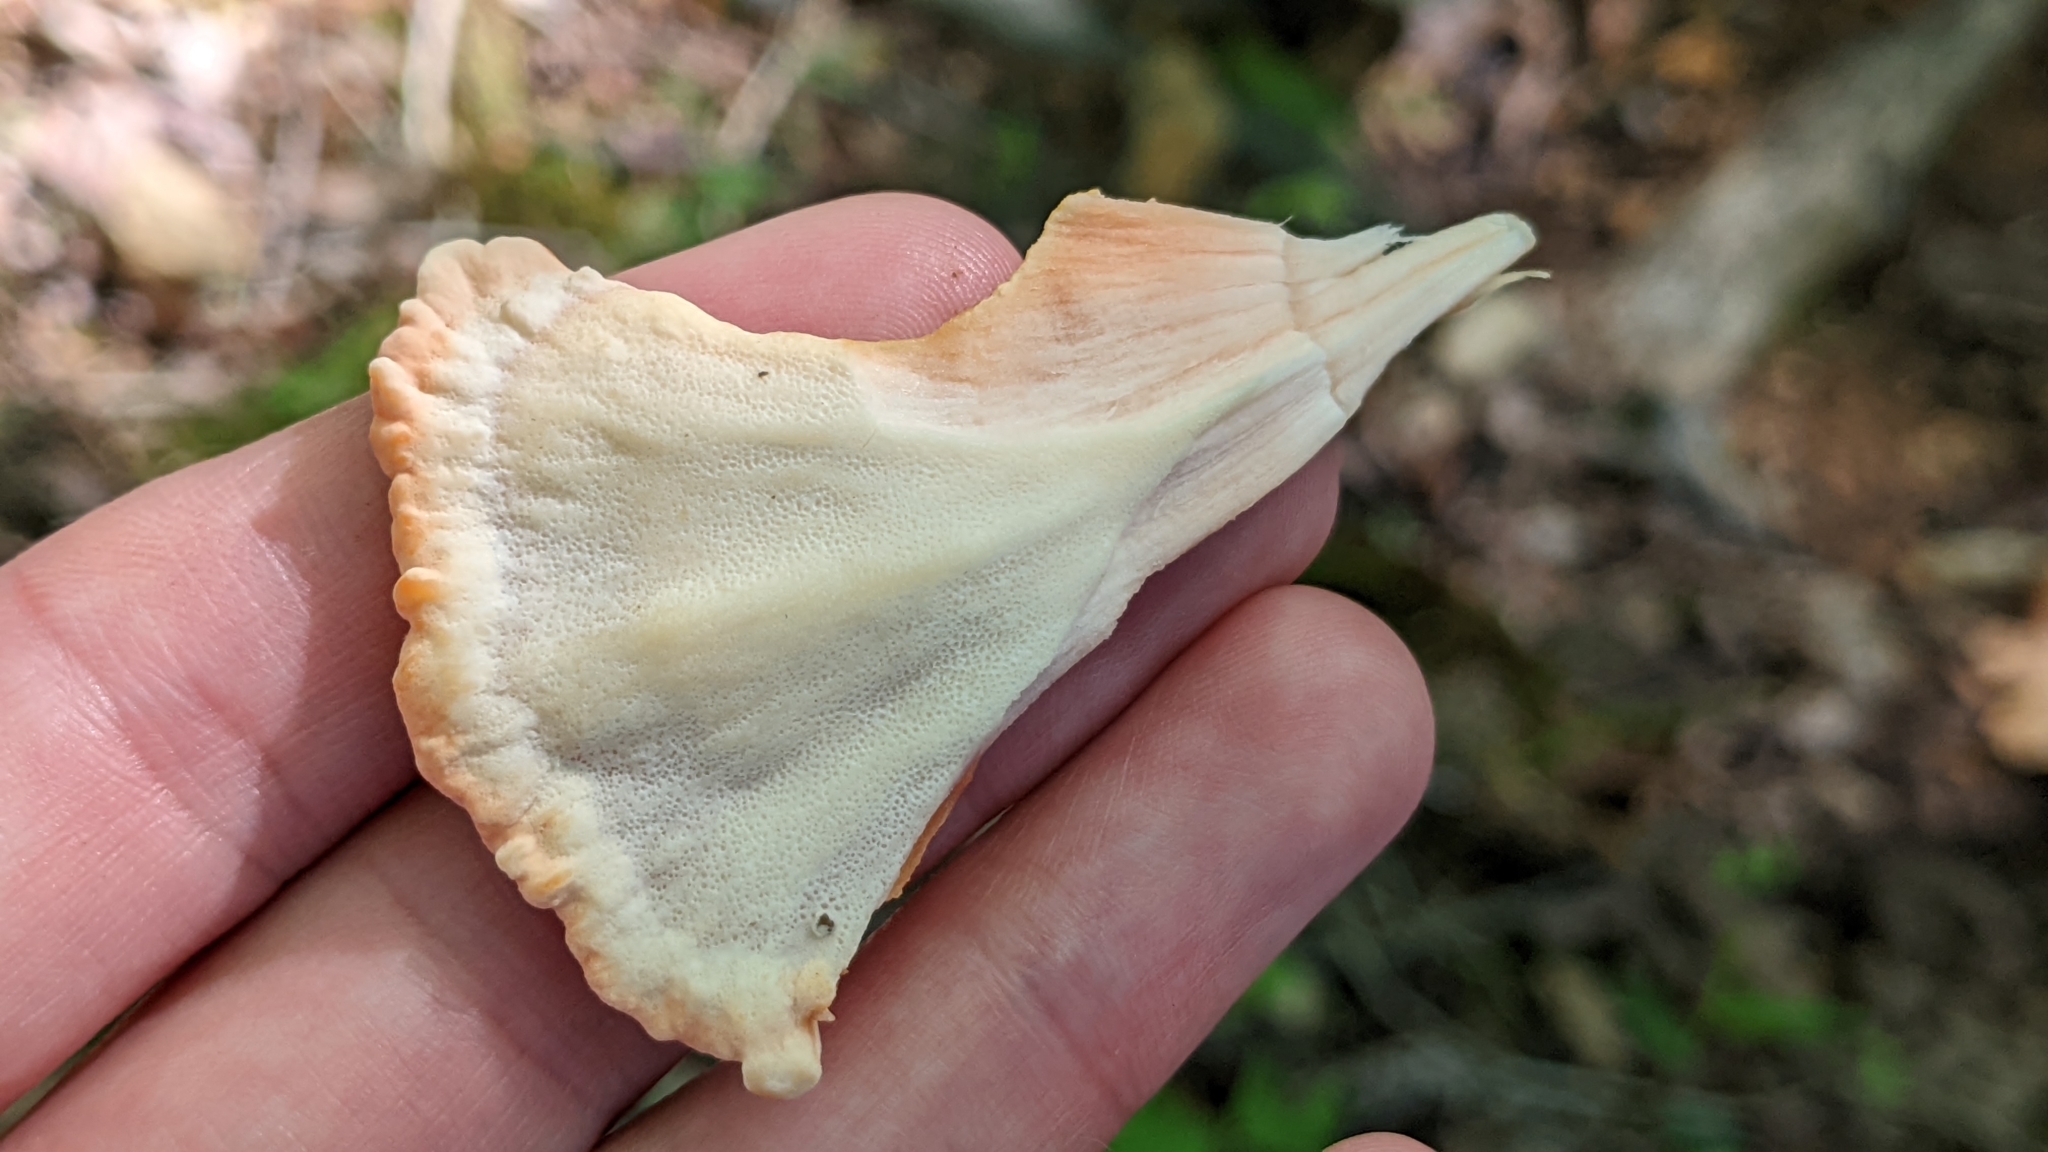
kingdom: Fungi
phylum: Basidiomycota
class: Agaricomycetes
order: Polyporales
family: Laetiporaceae
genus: Laetiporus
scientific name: Laetiporus sulphureus
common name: Chicken of the woods
